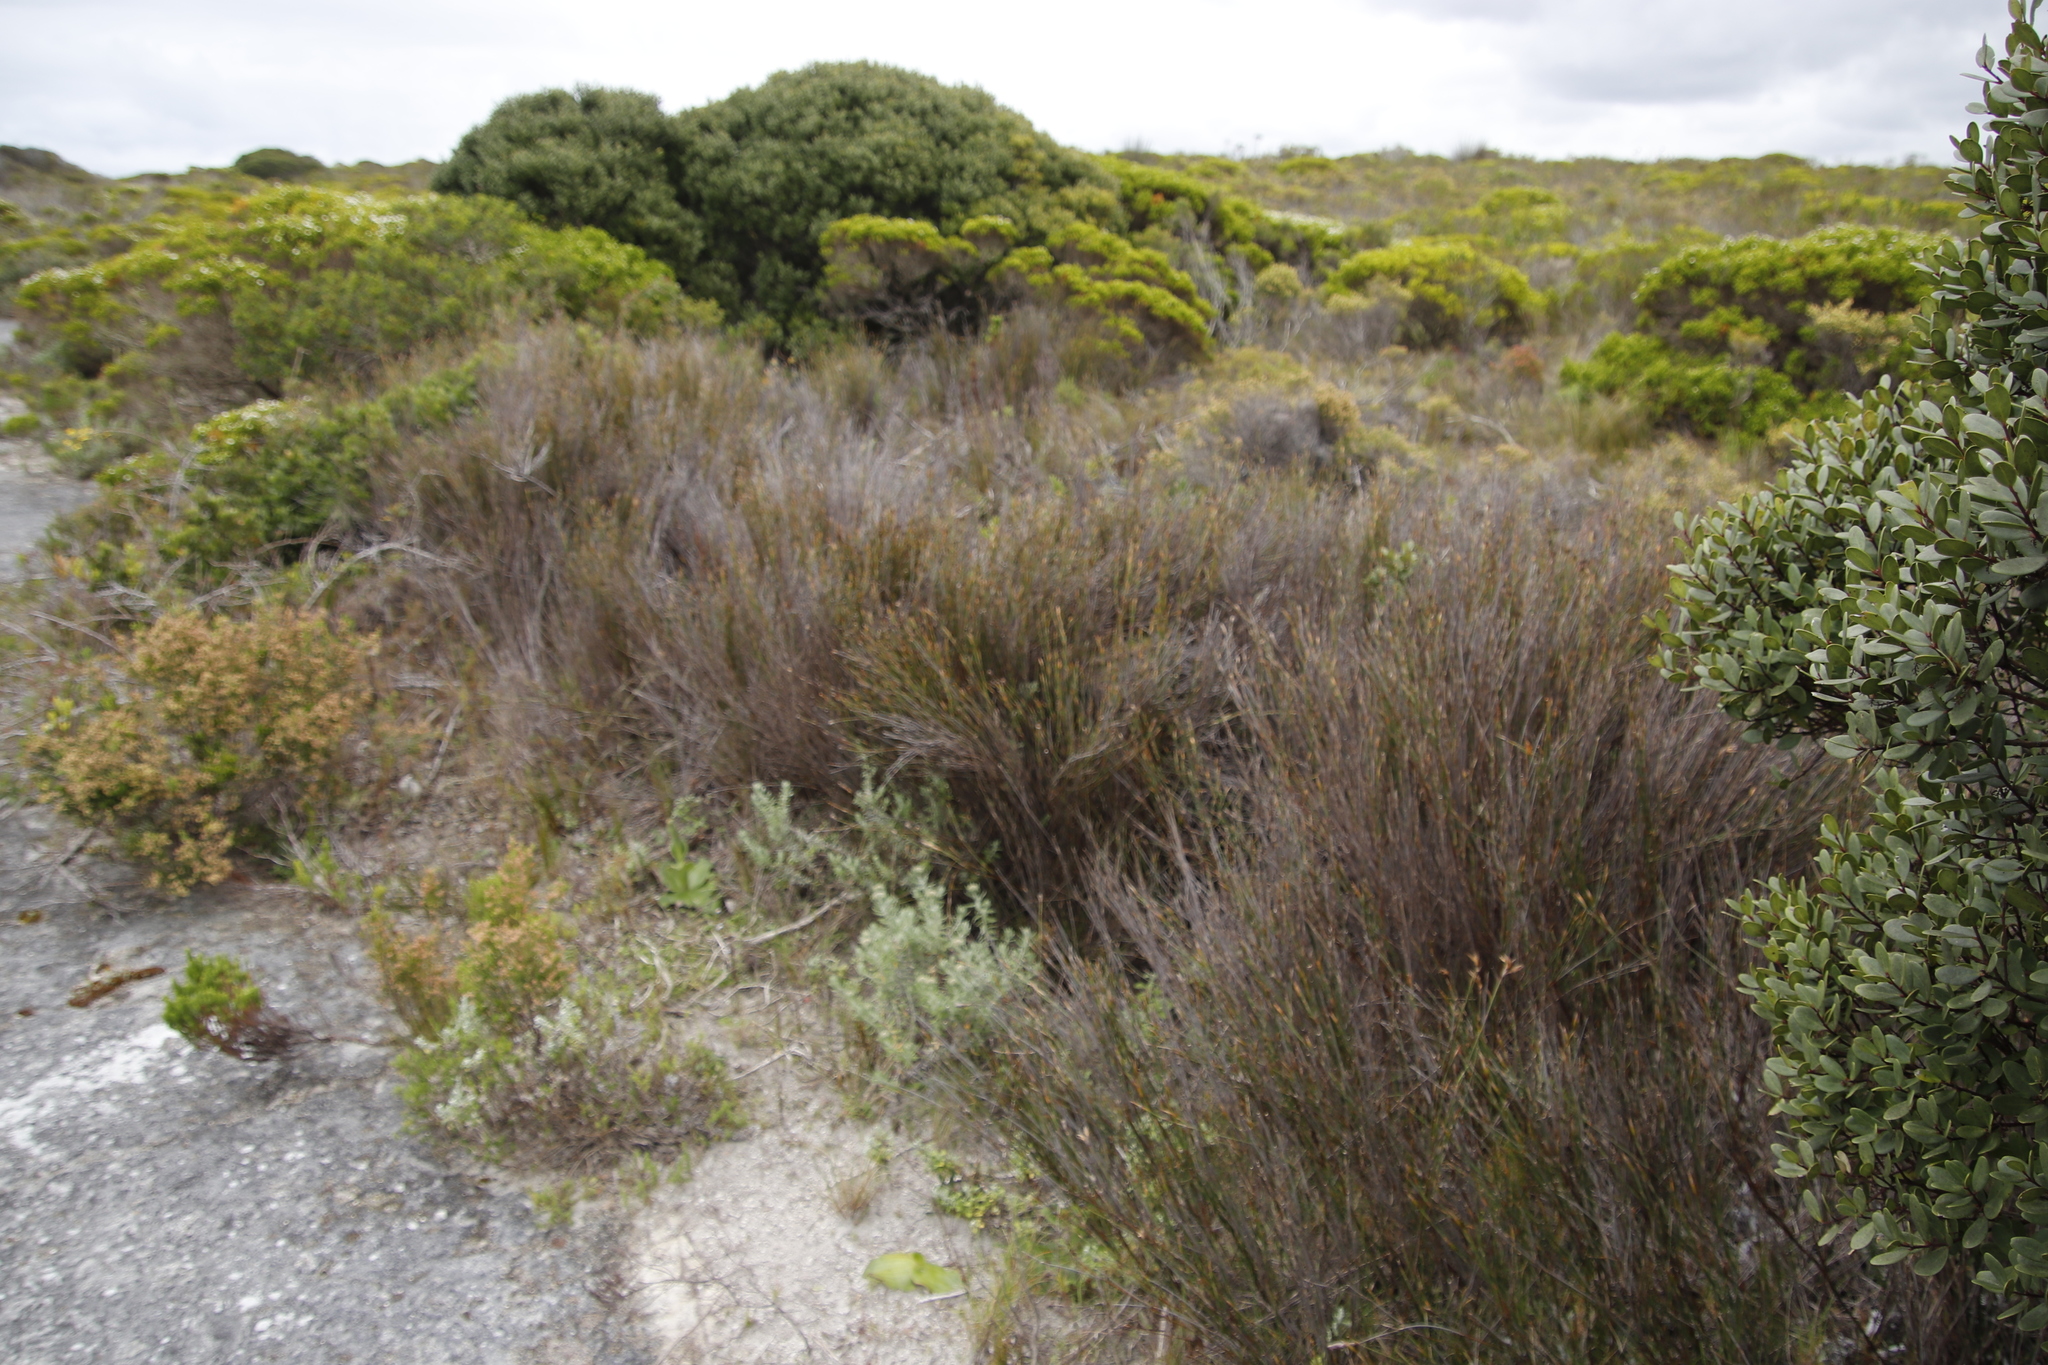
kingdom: Plantae
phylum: Tracheophyta
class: Liliopsida
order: Poales
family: Restionaceae
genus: Willdenowia
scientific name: Willdenowia teres
